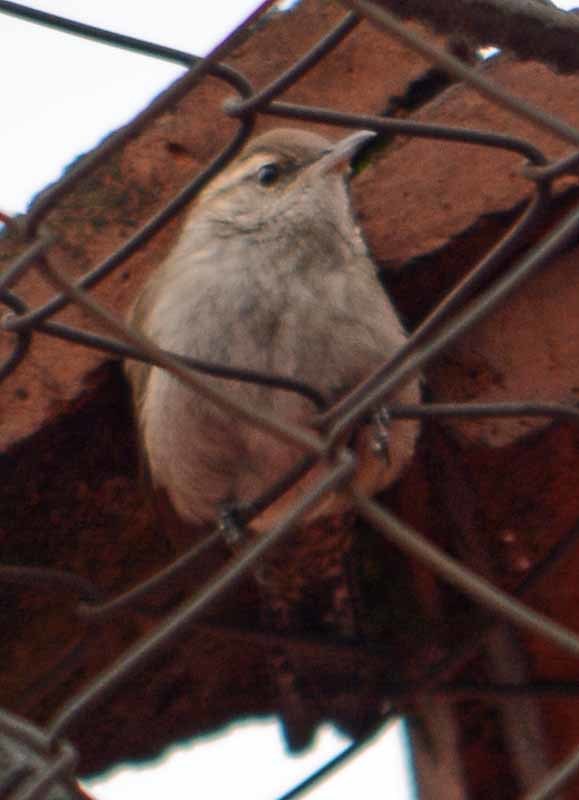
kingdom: Animalia
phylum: Chordata
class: Aves
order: Passeriformes
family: Troglodytidae
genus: Thryomanes
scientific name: Thryomanes bewickii
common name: Bewick's wren
